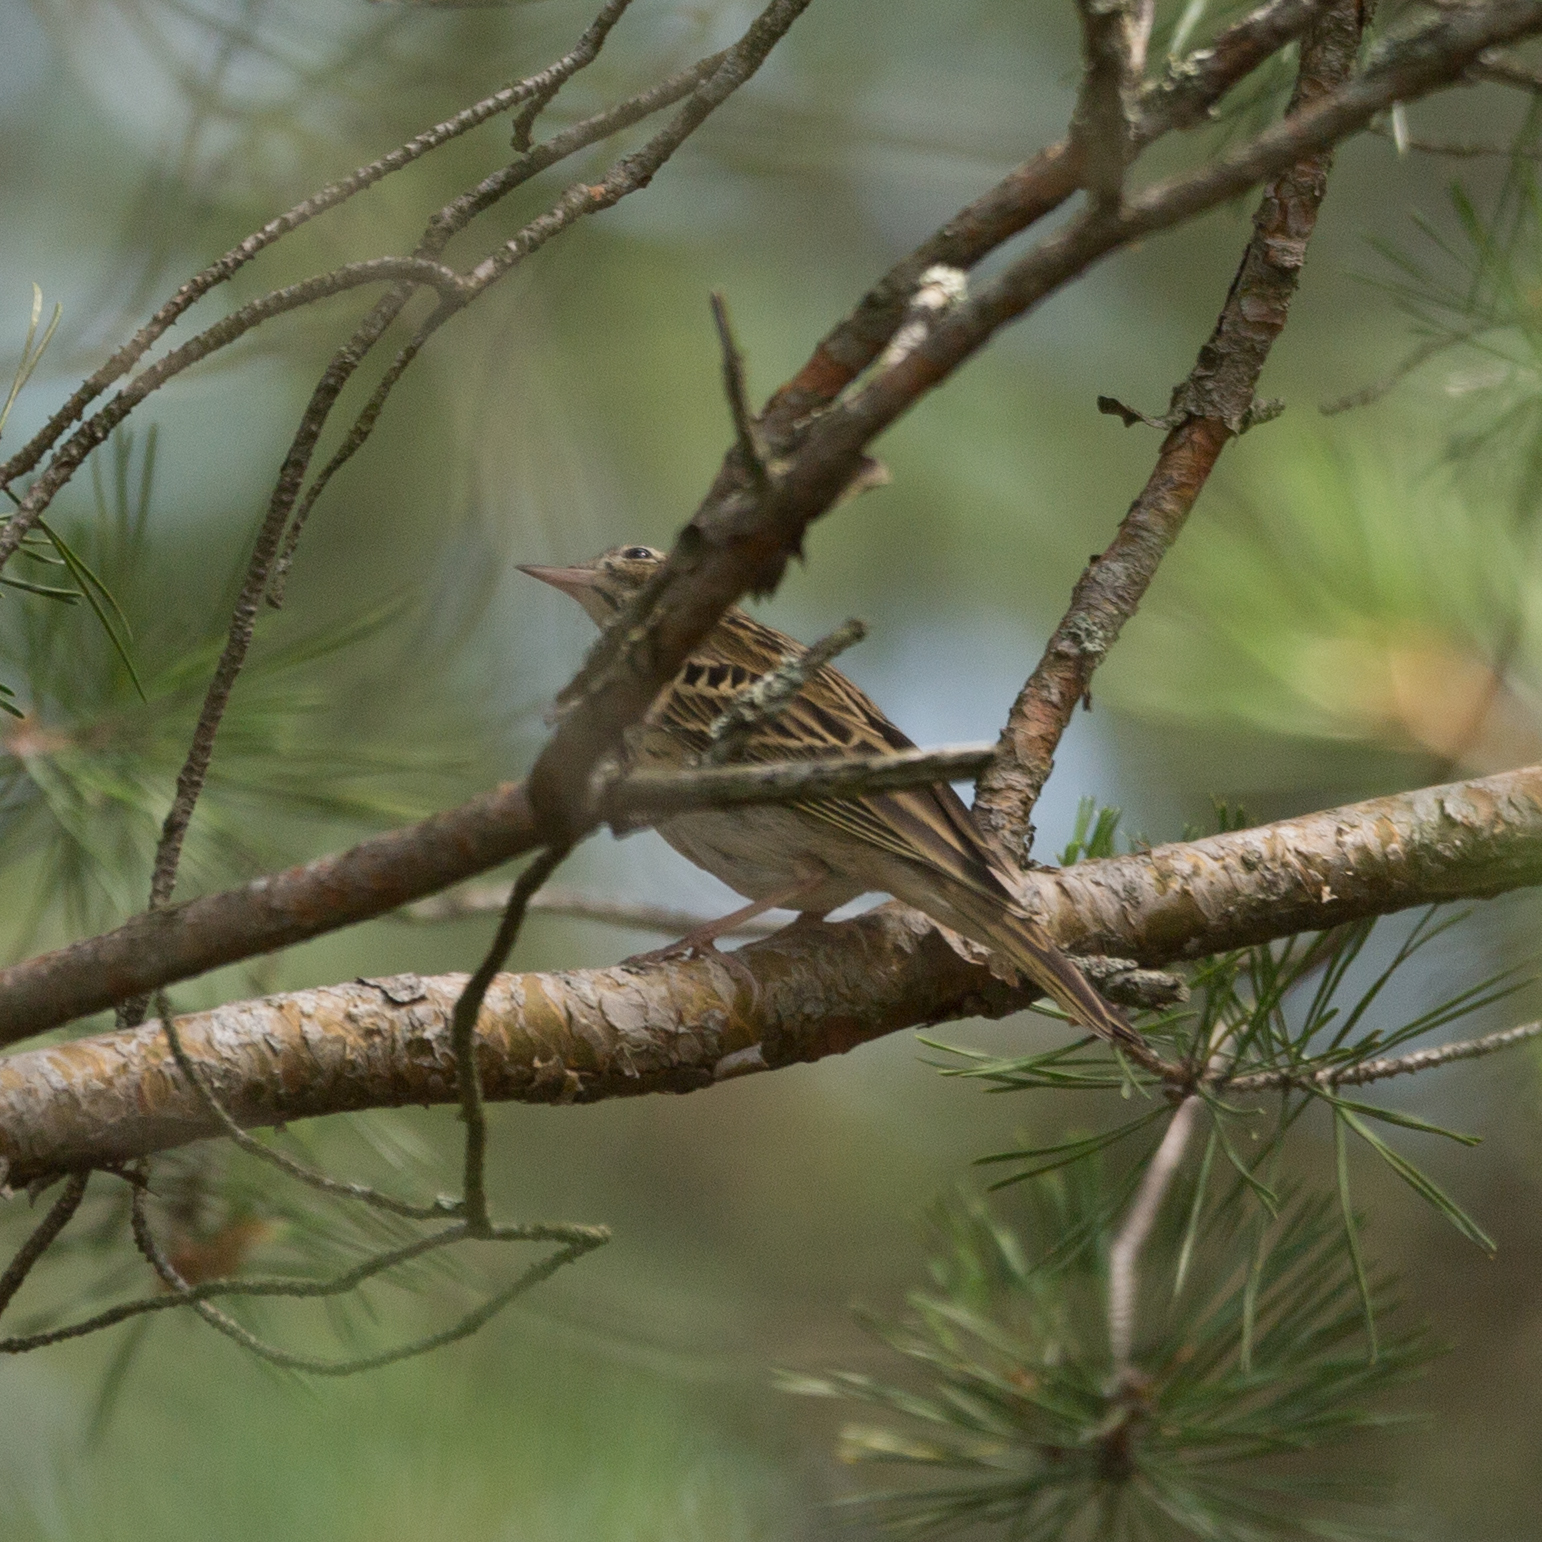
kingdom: Animalia
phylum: Chordata
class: Aves
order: Passeriformes
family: Motacillidae
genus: Anthus
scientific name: Anthus trivialis
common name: Tree pipit
